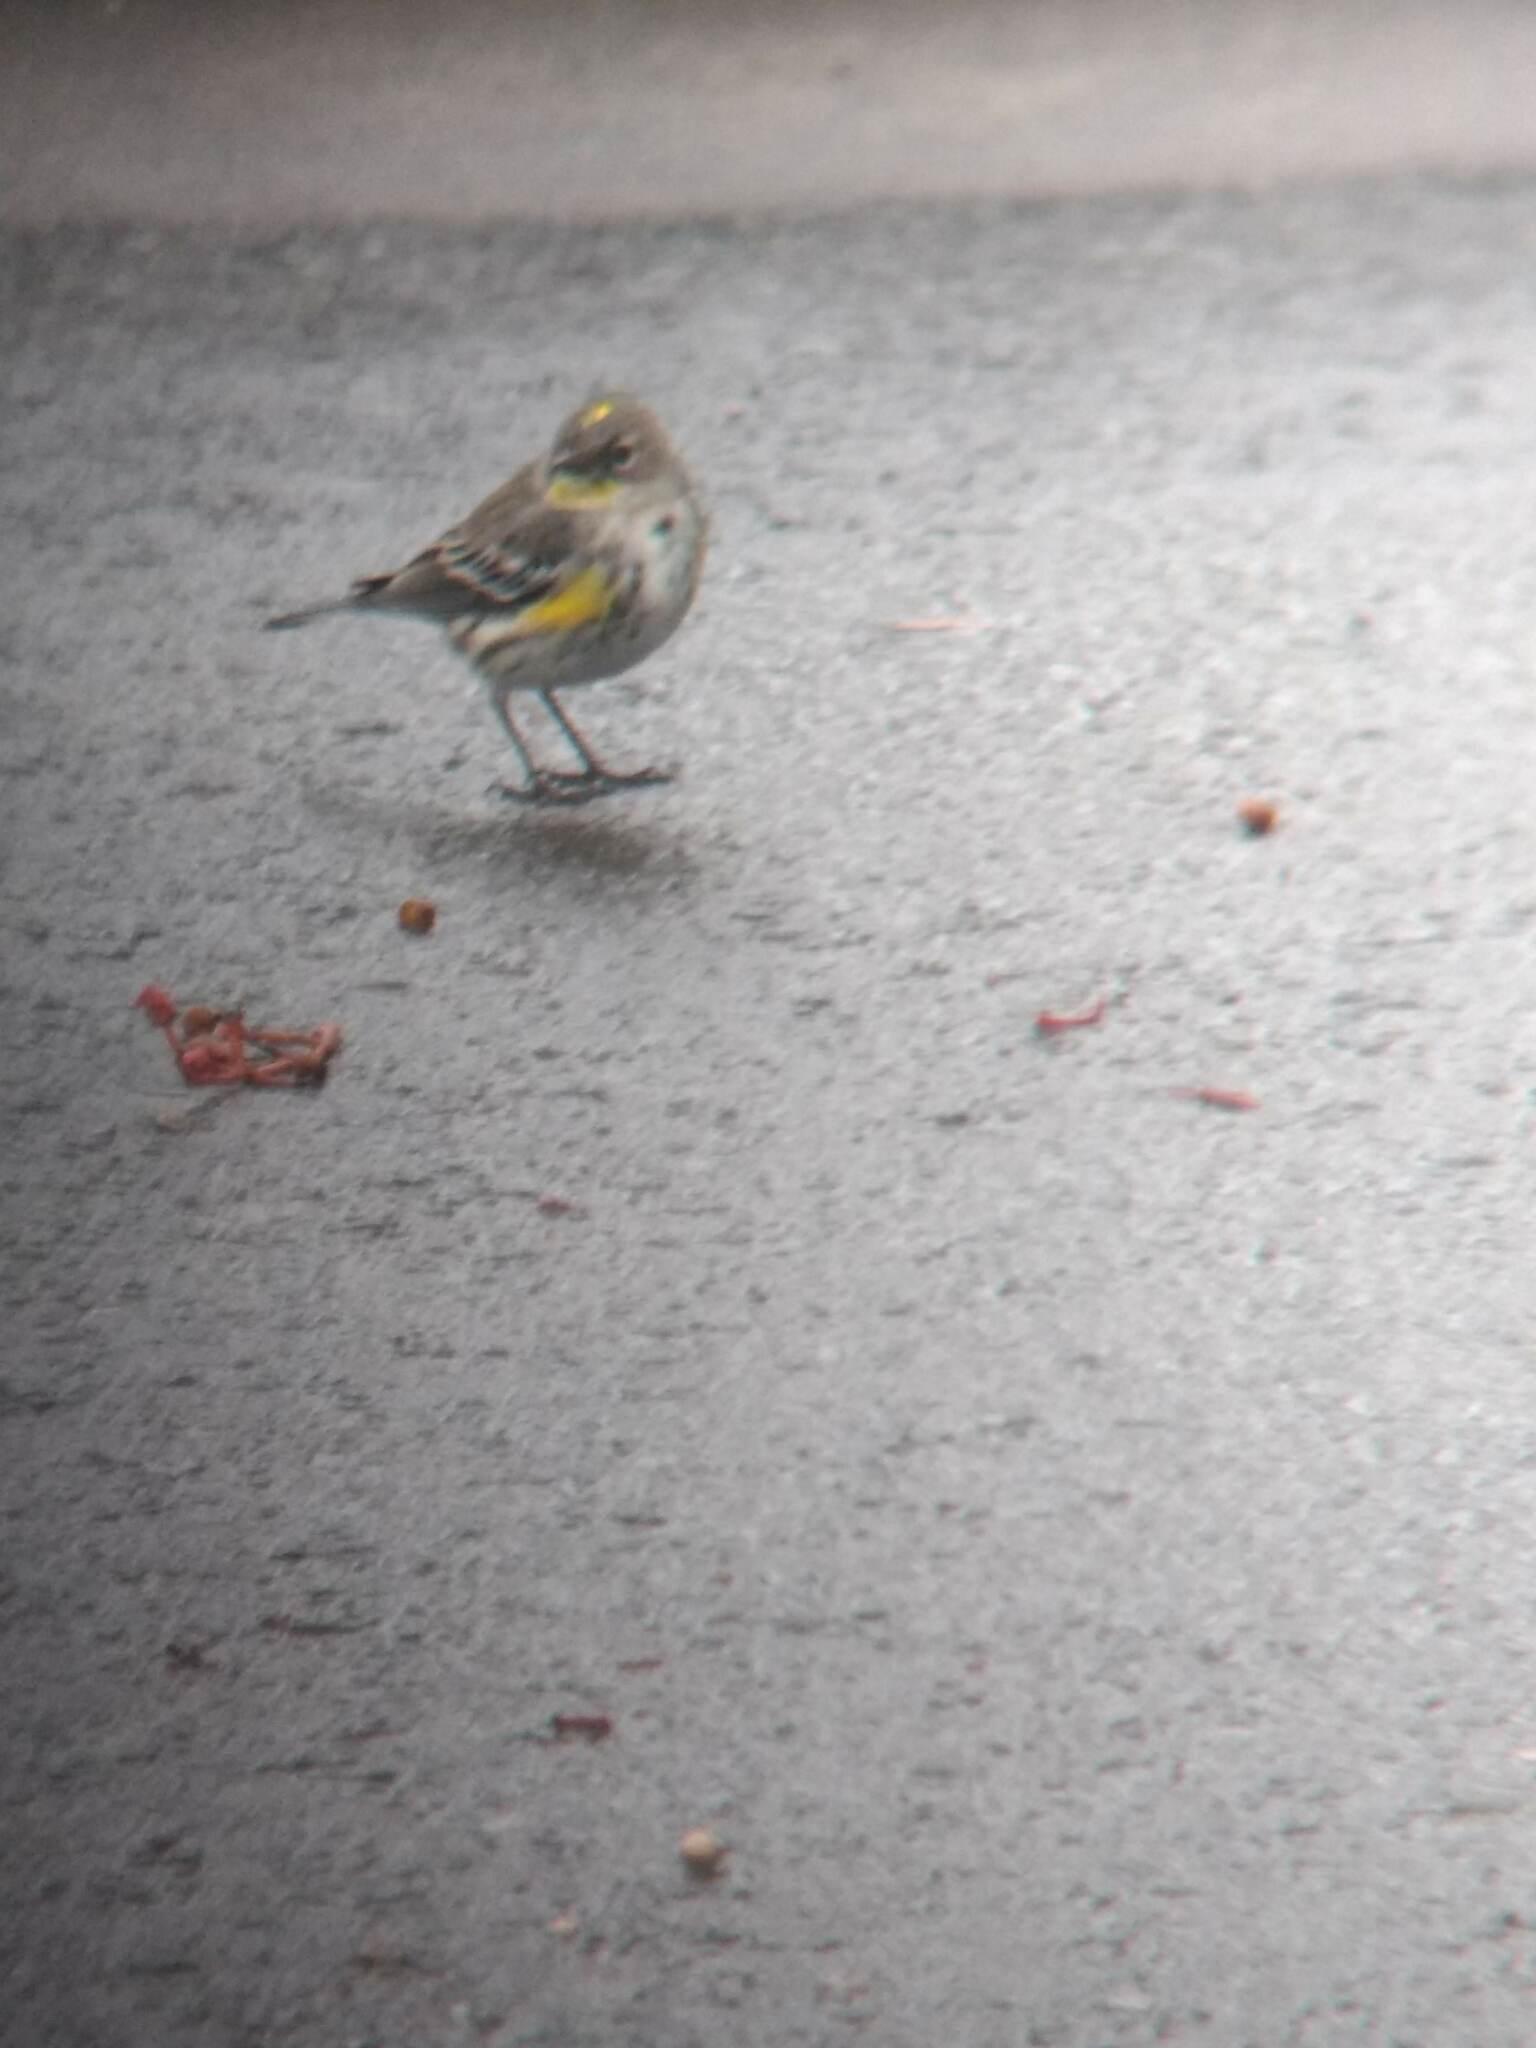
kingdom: Animalia
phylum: Chordata
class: Aves
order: Passeriformes
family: Parulidae
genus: Setophaga
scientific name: Setophaga coronata
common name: Myrtle warbler
